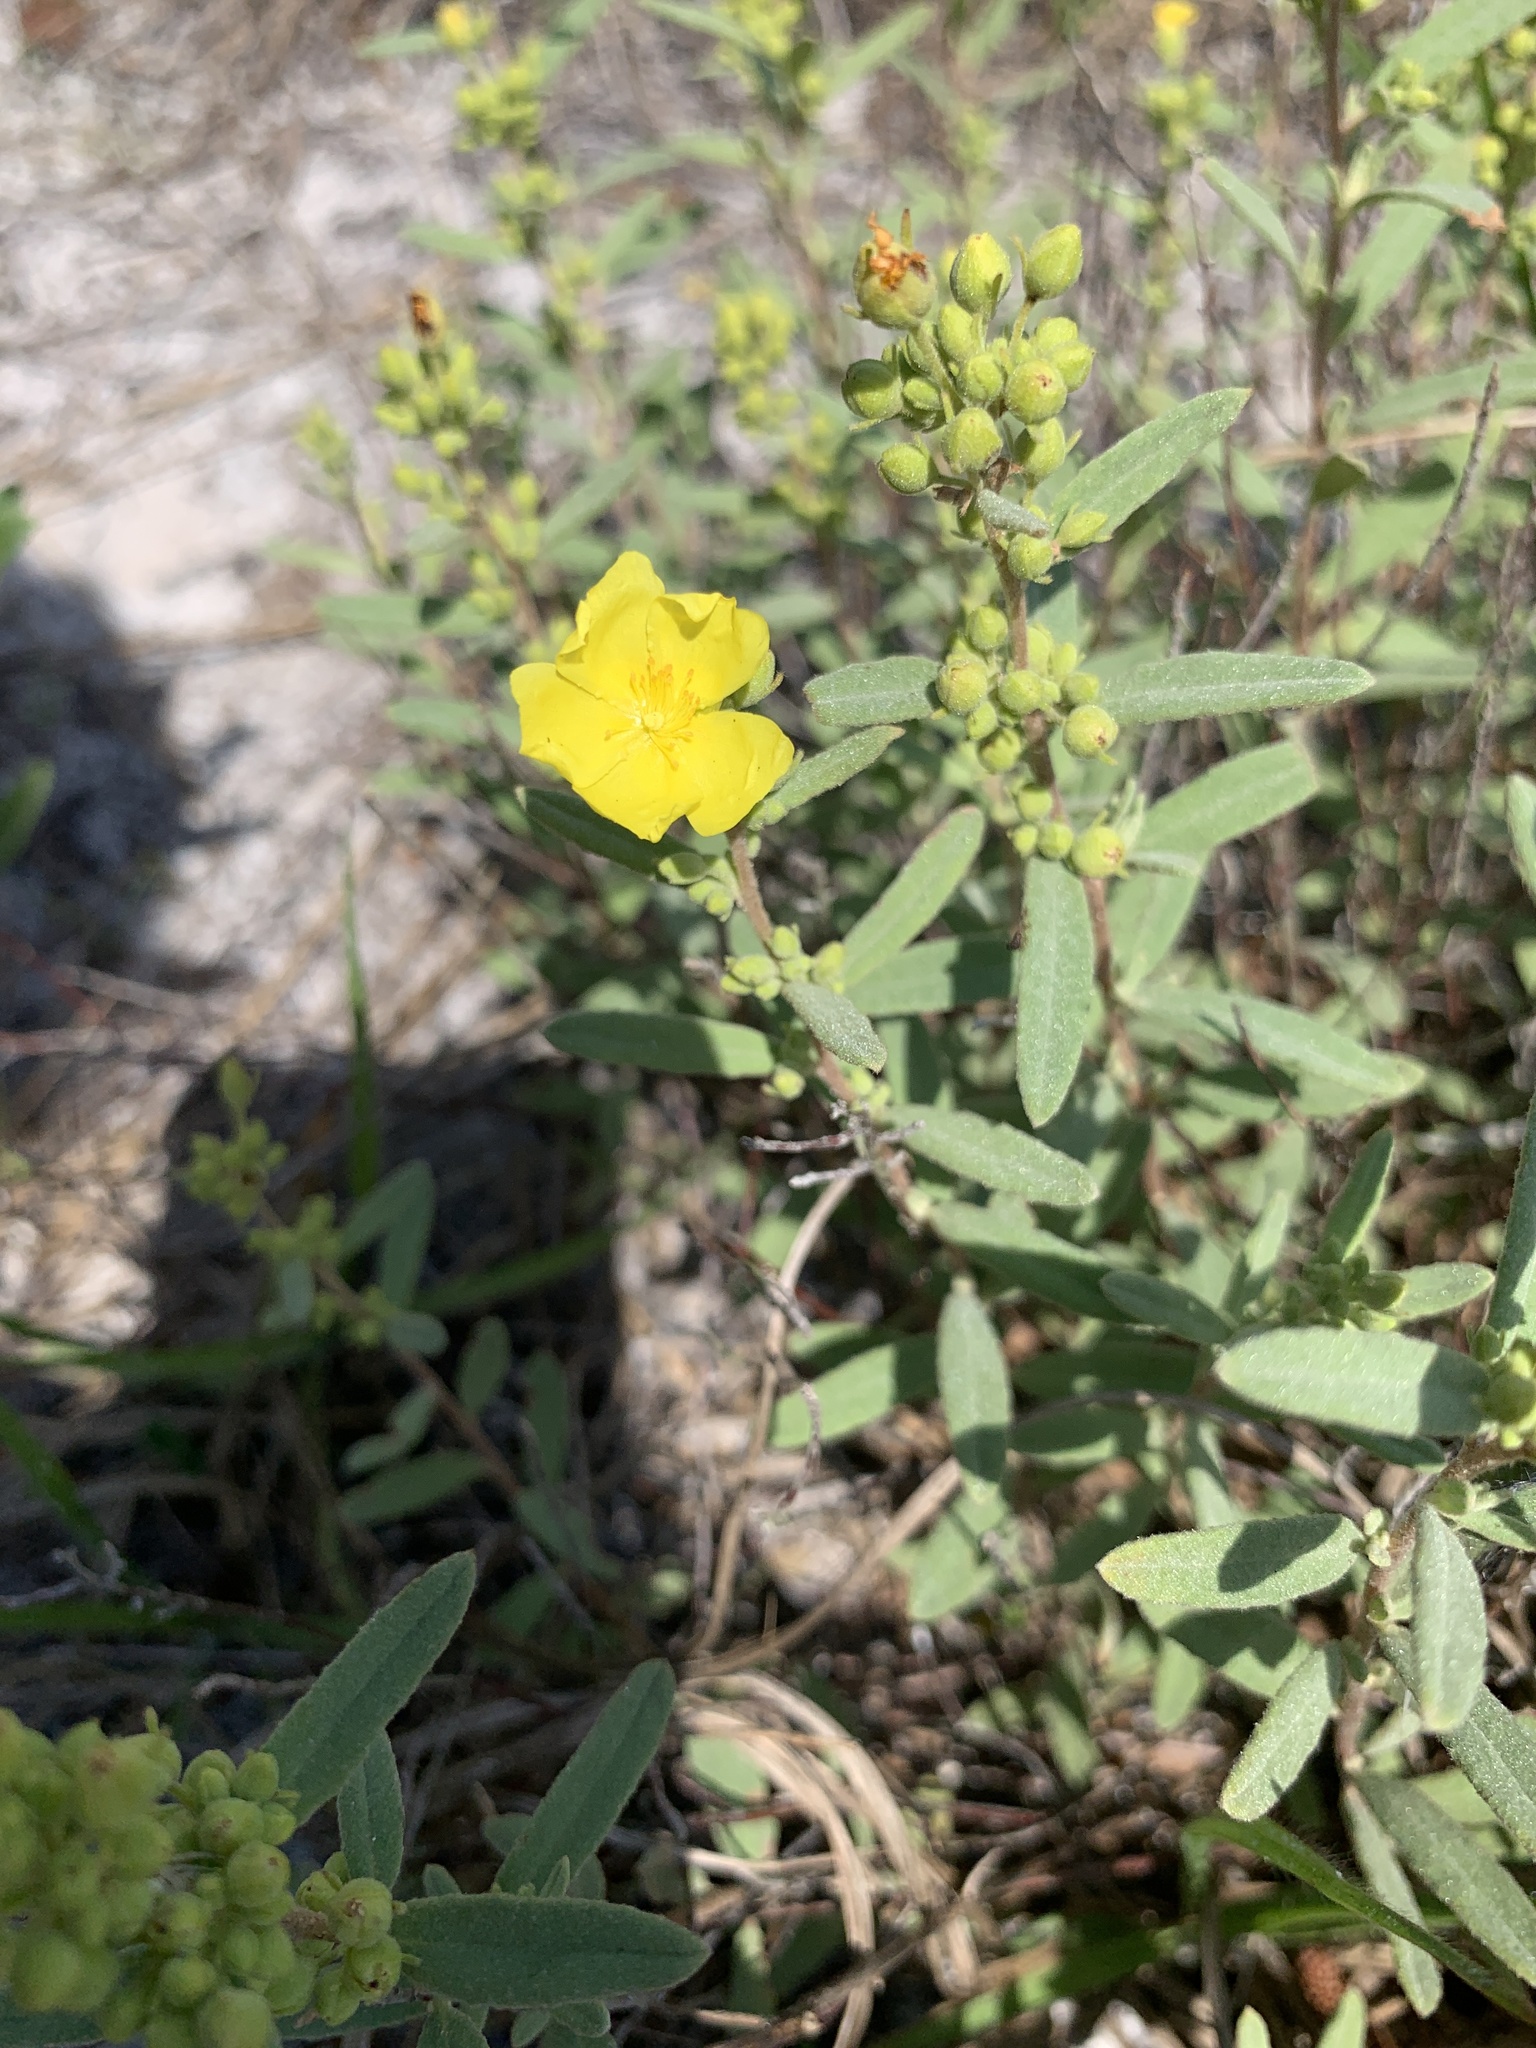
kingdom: Plantae
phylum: Tracheophyta
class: Magnoliopsida
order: Malvales
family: Cistaceae
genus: Crocanthemum
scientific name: Crocanthemum nashii
